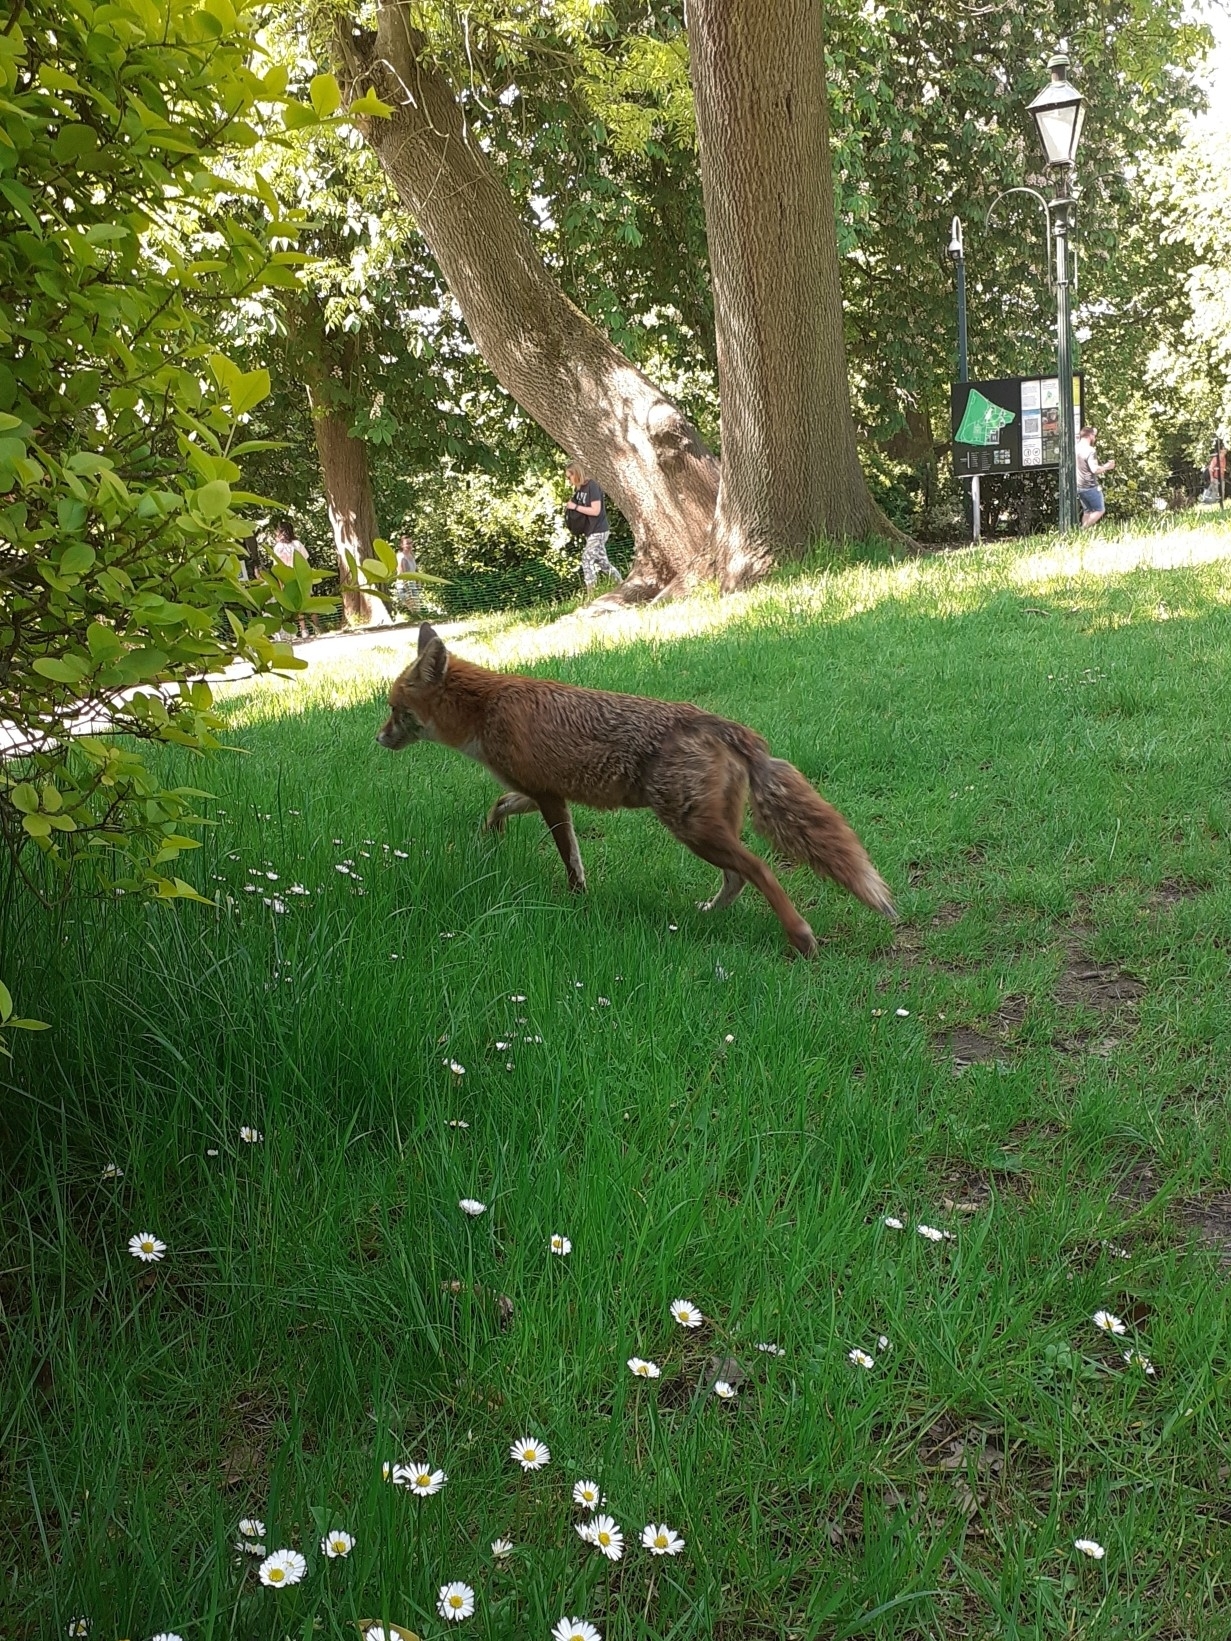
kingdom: Animalia
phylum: Chordata
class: Mammalia
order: Carnivora
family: Canidae
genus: Vulpes
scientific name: Vulpes vulpes
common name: Red fox
